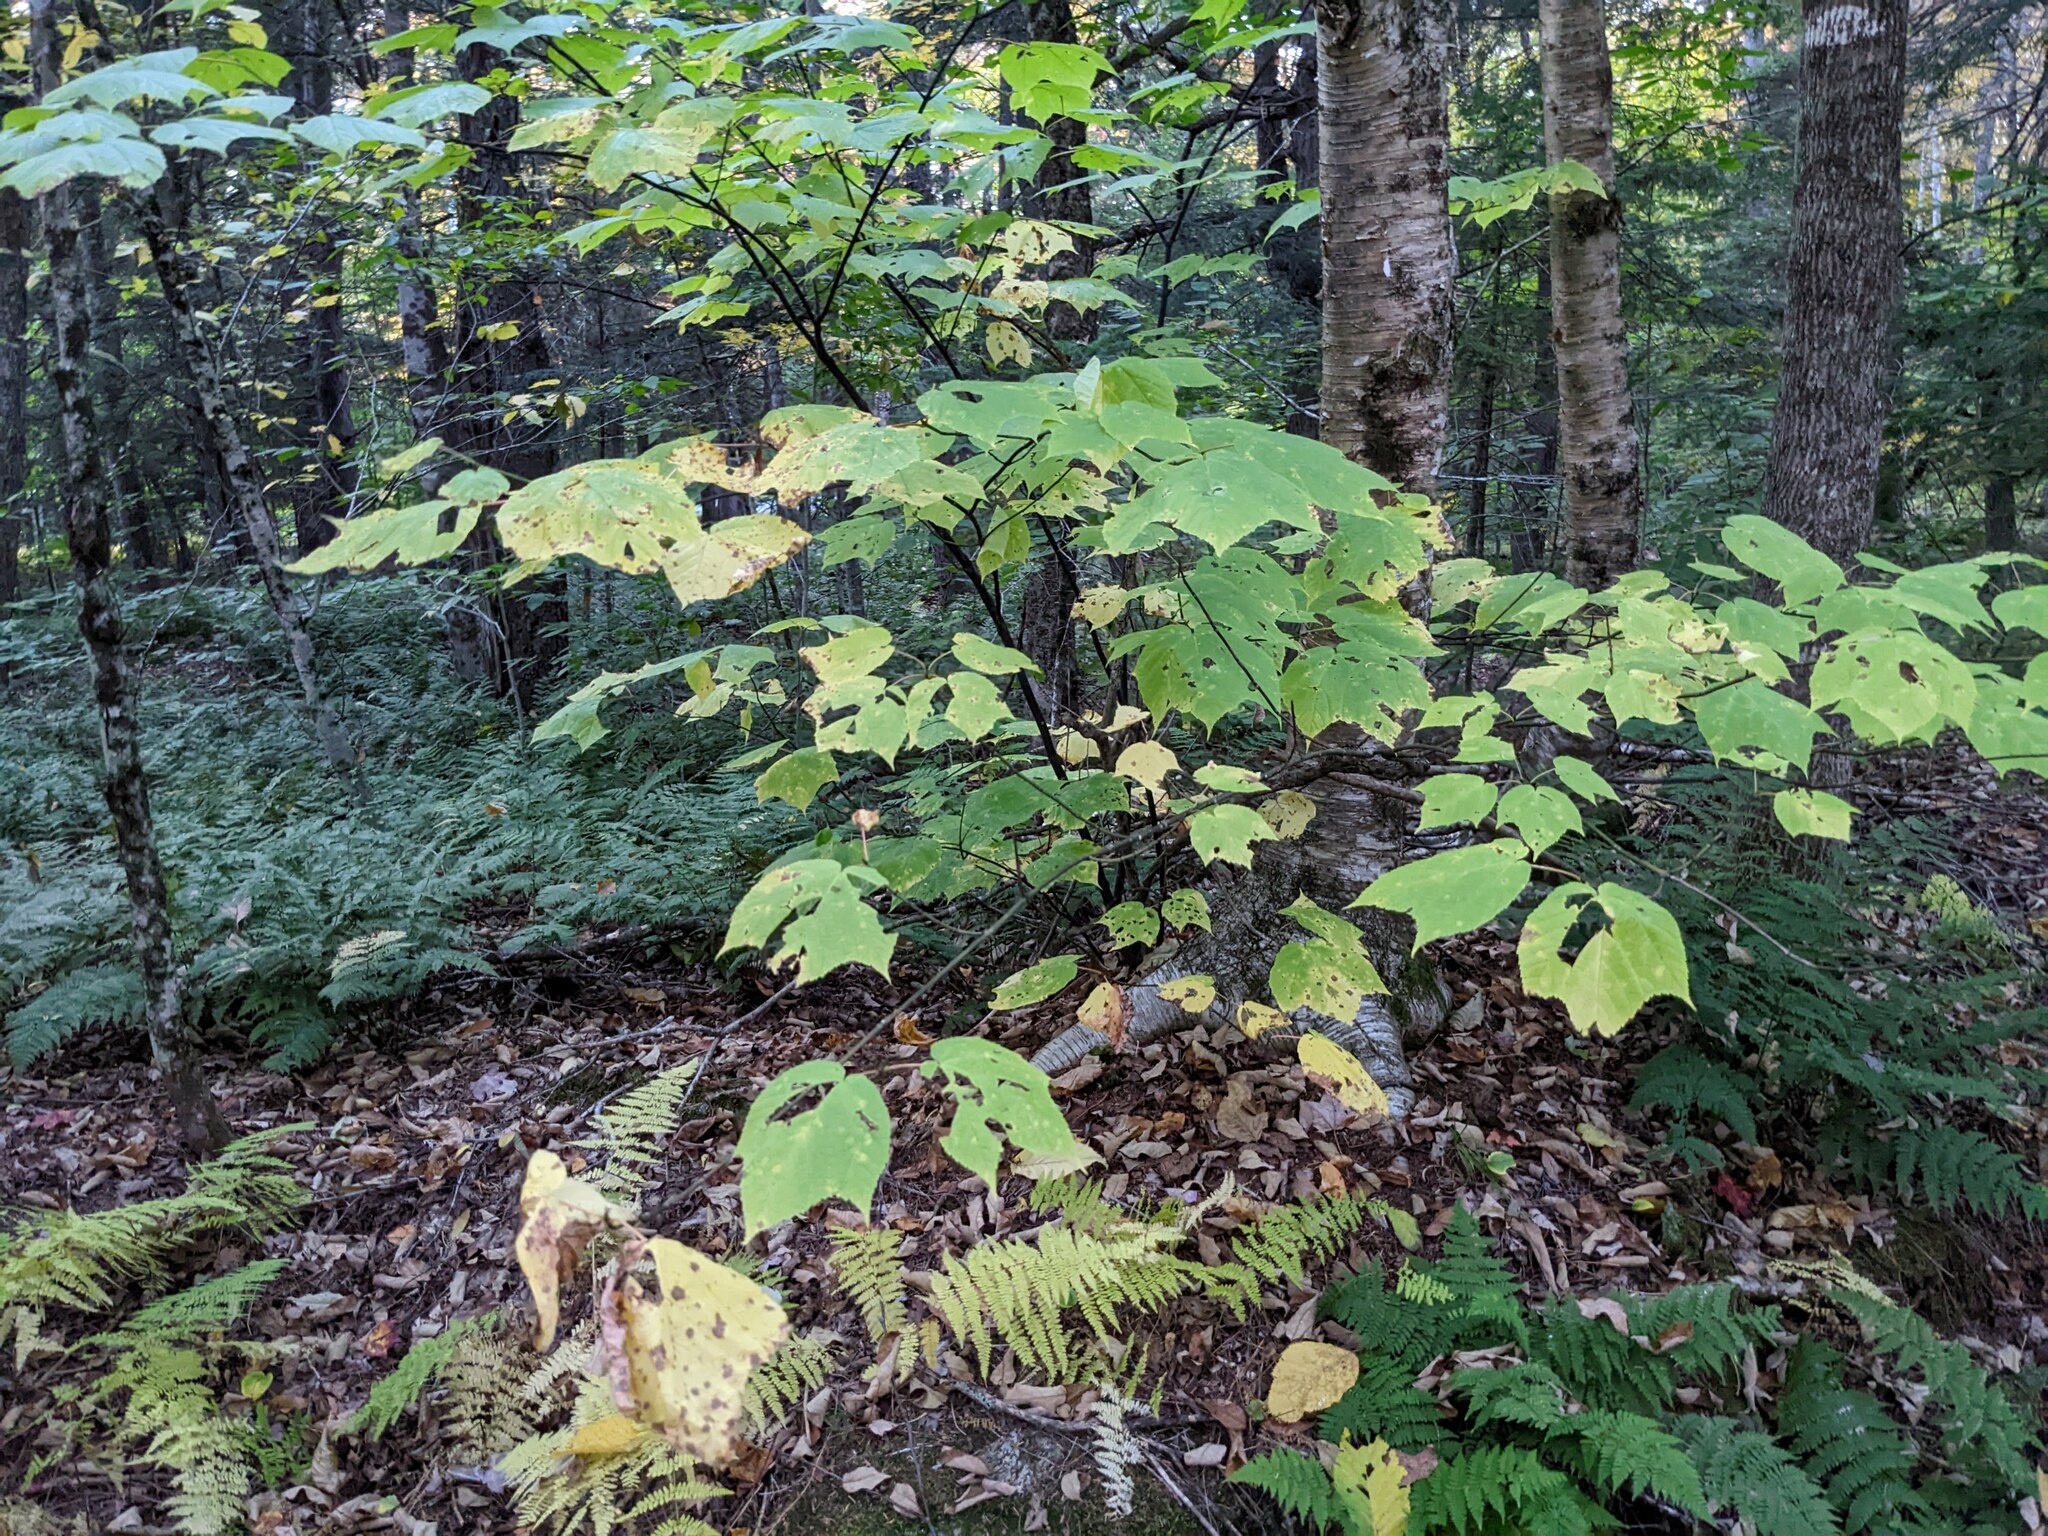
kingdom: Plantae
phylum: Tracheophyta
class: Magnoliopsida
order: Sapindales
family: Sapindaceae
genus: Acer
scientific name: Acer pensylvanicum
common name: Moosewood
